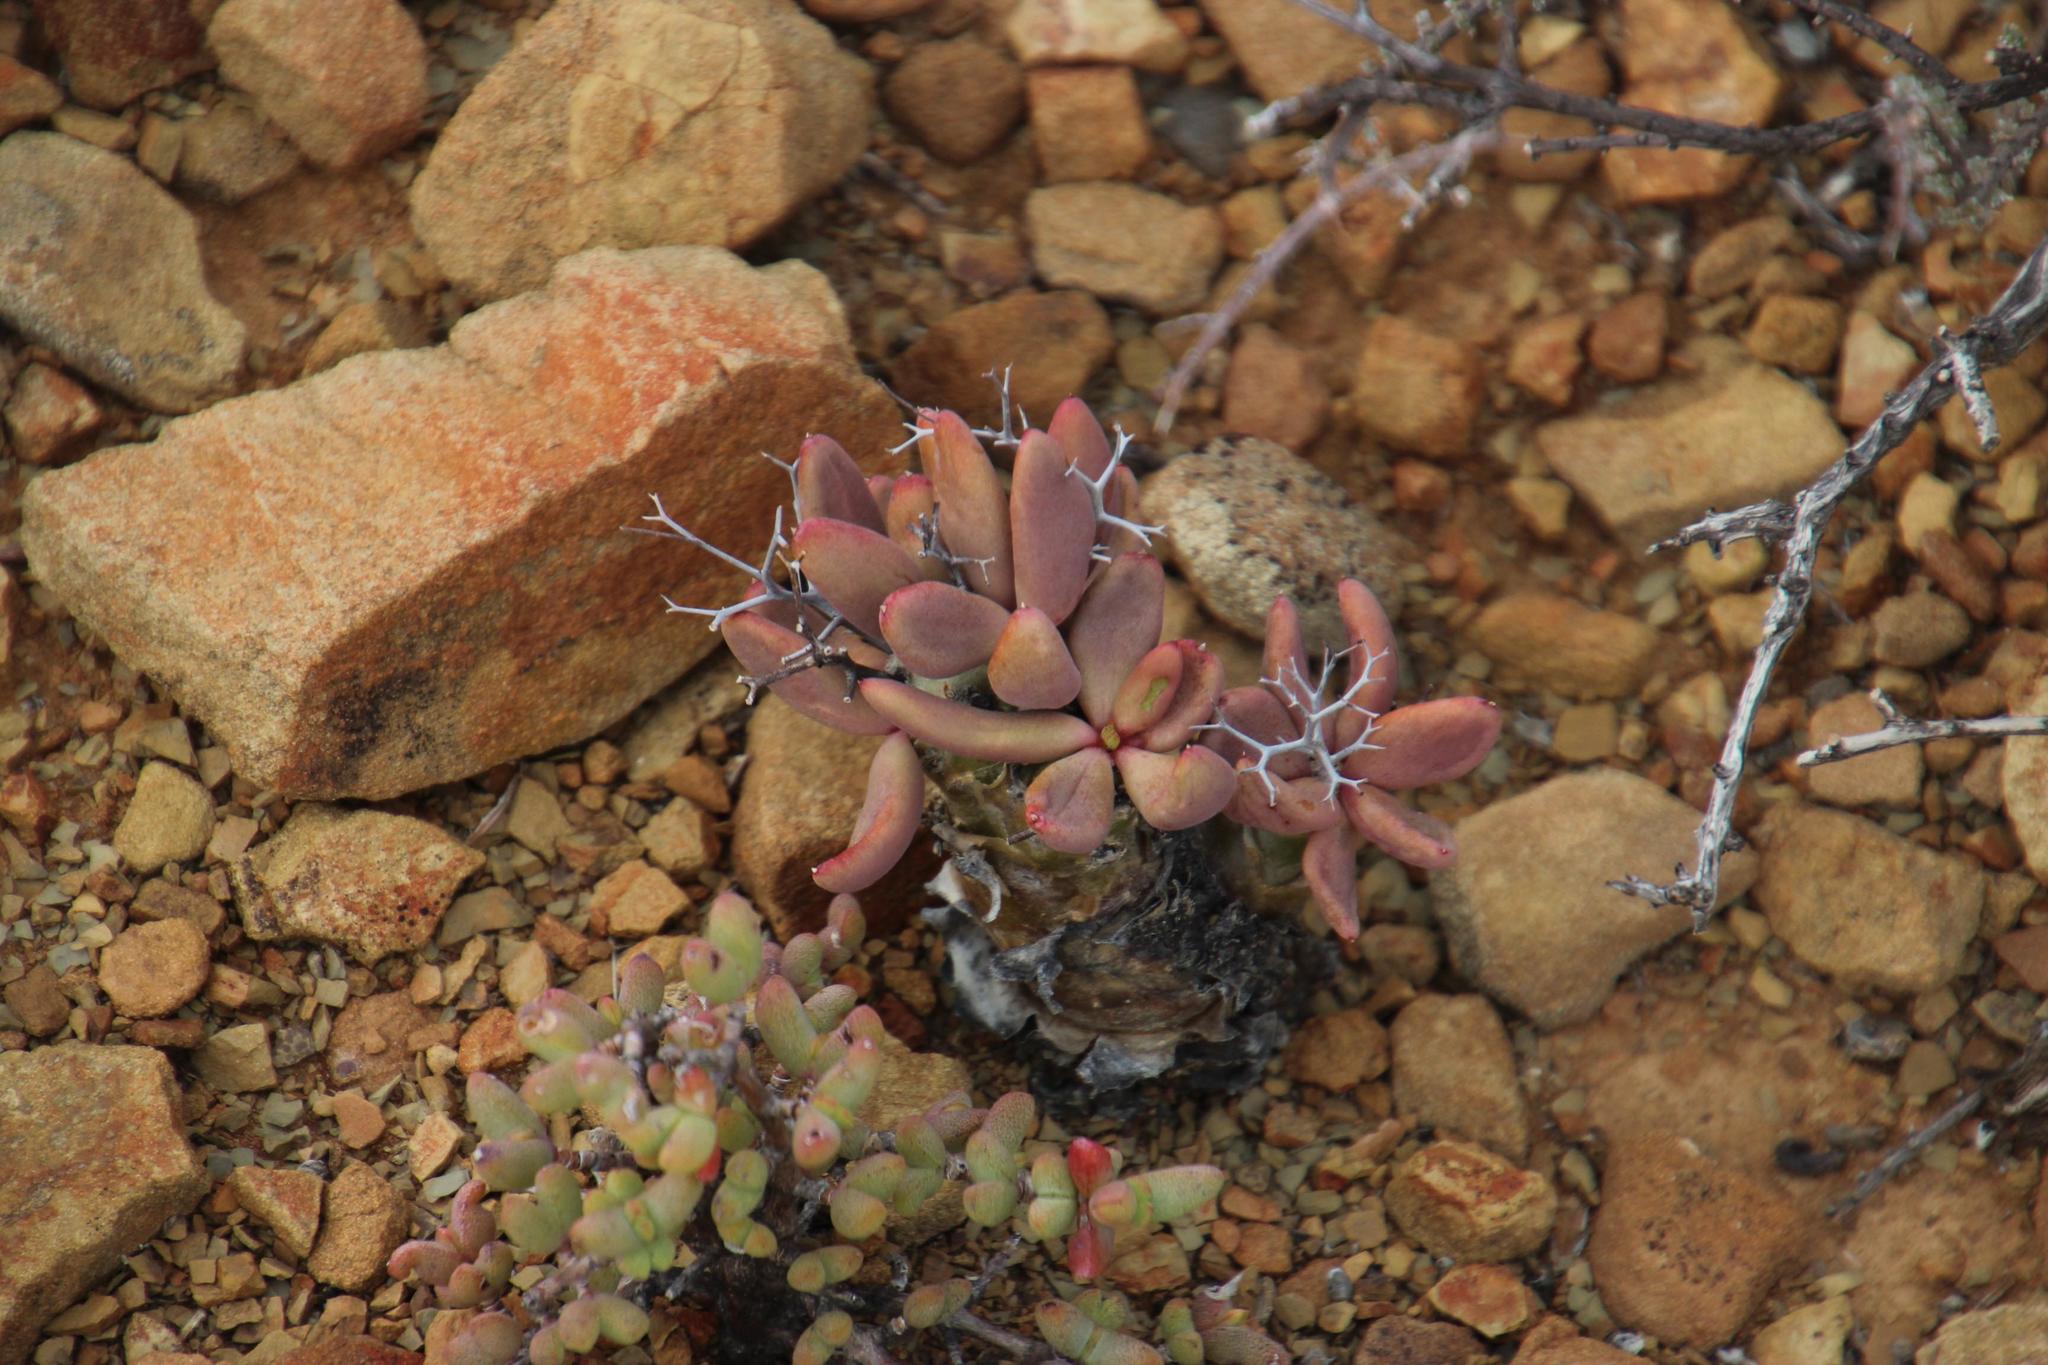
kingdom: Plantae
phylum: Tracheophyta
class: Magnoliopsida
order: Saxifragales
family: Crassulaceae
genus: Tylecodon
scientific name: Tylecodon reticulatus
